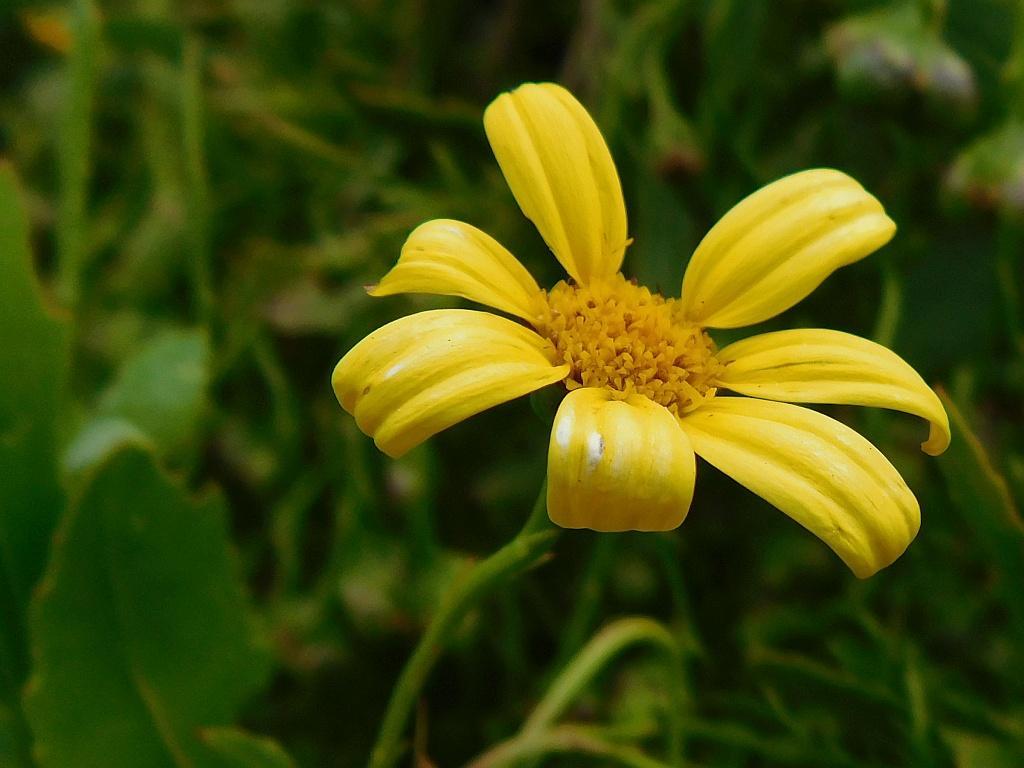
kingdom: Plantae
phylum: Tracheophyta
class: Magnoliopsida
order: Asterales
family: Asteraceae
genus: Osteospermum
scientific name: Osteospermum moniliferum
